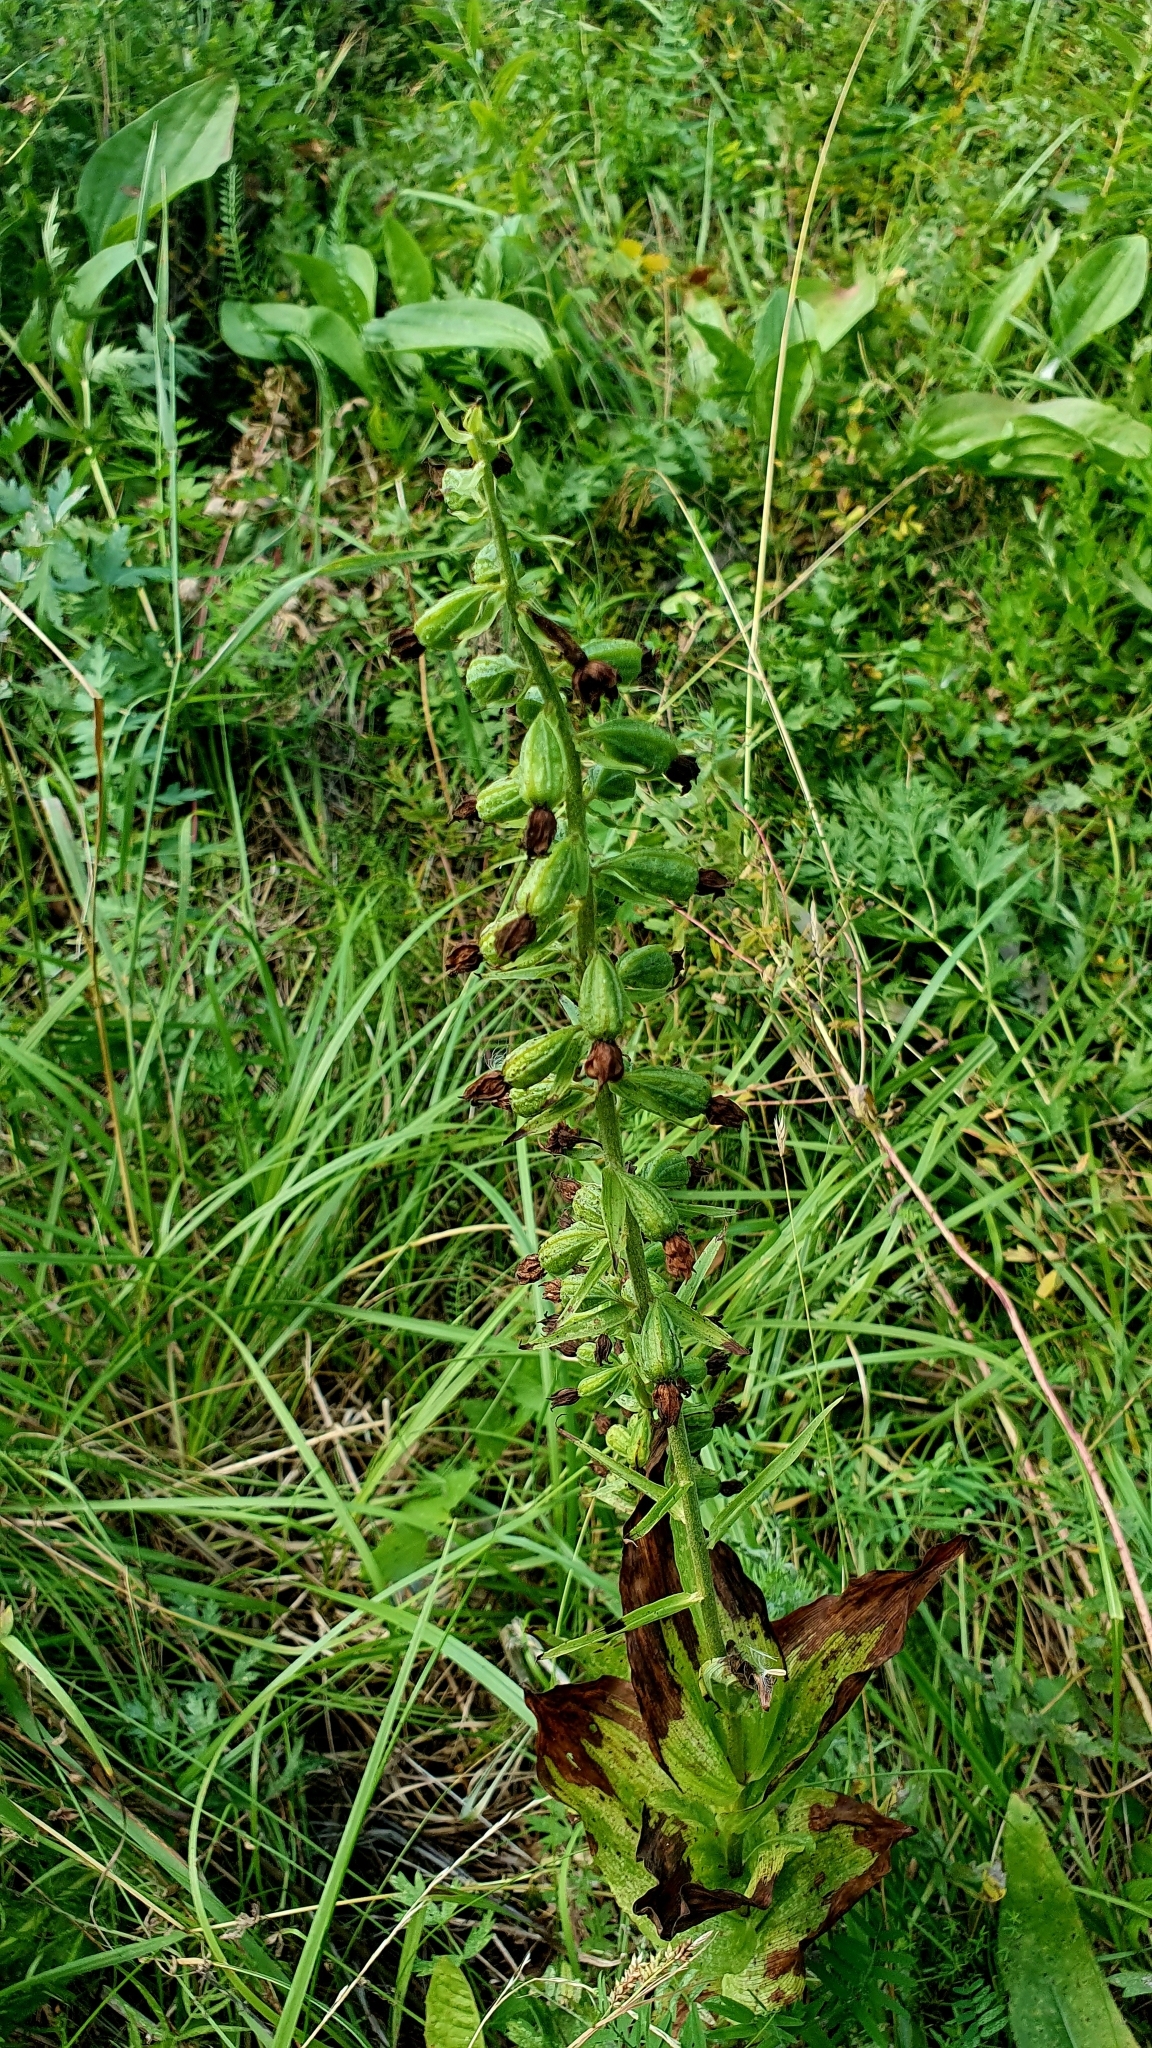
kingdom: Plantae
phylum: Tracheophyta
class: Liliopsida
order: Asparagales
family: Orchidaceae
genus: Epipactis
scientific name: Epipactis helleborine
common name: Broad-leaved helleborine
